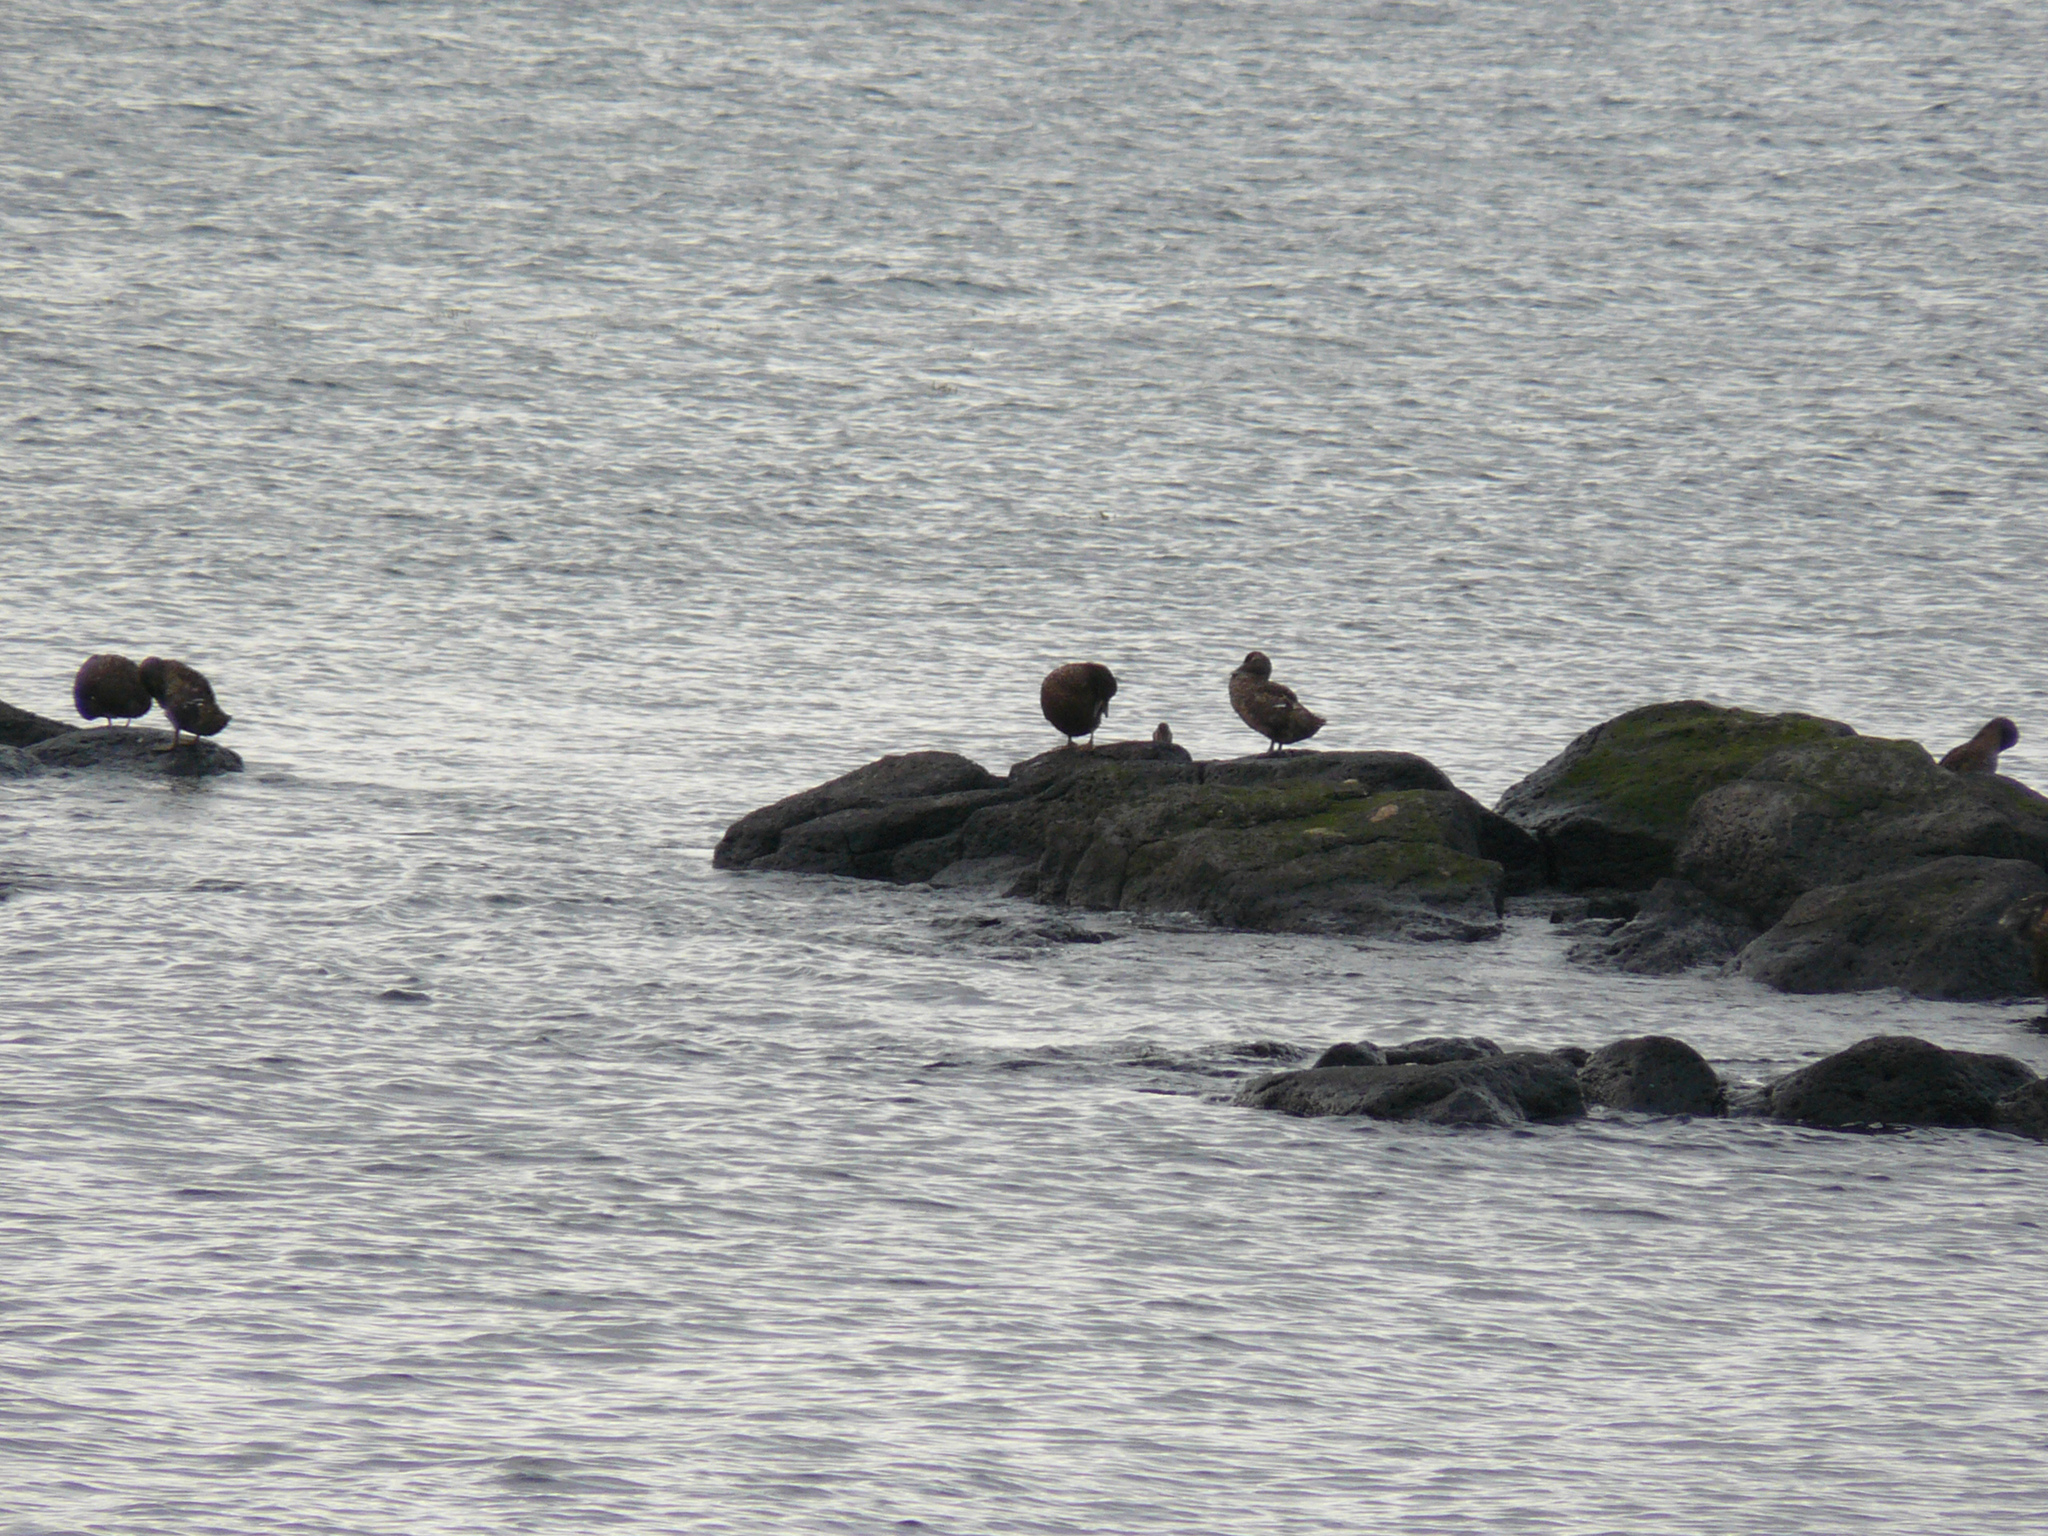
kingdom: Animalia
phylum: Chordata
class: Aves
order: Anseriformes
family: Anatidae
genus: Somateria
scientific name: Somateria mollissima
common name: Common eider
